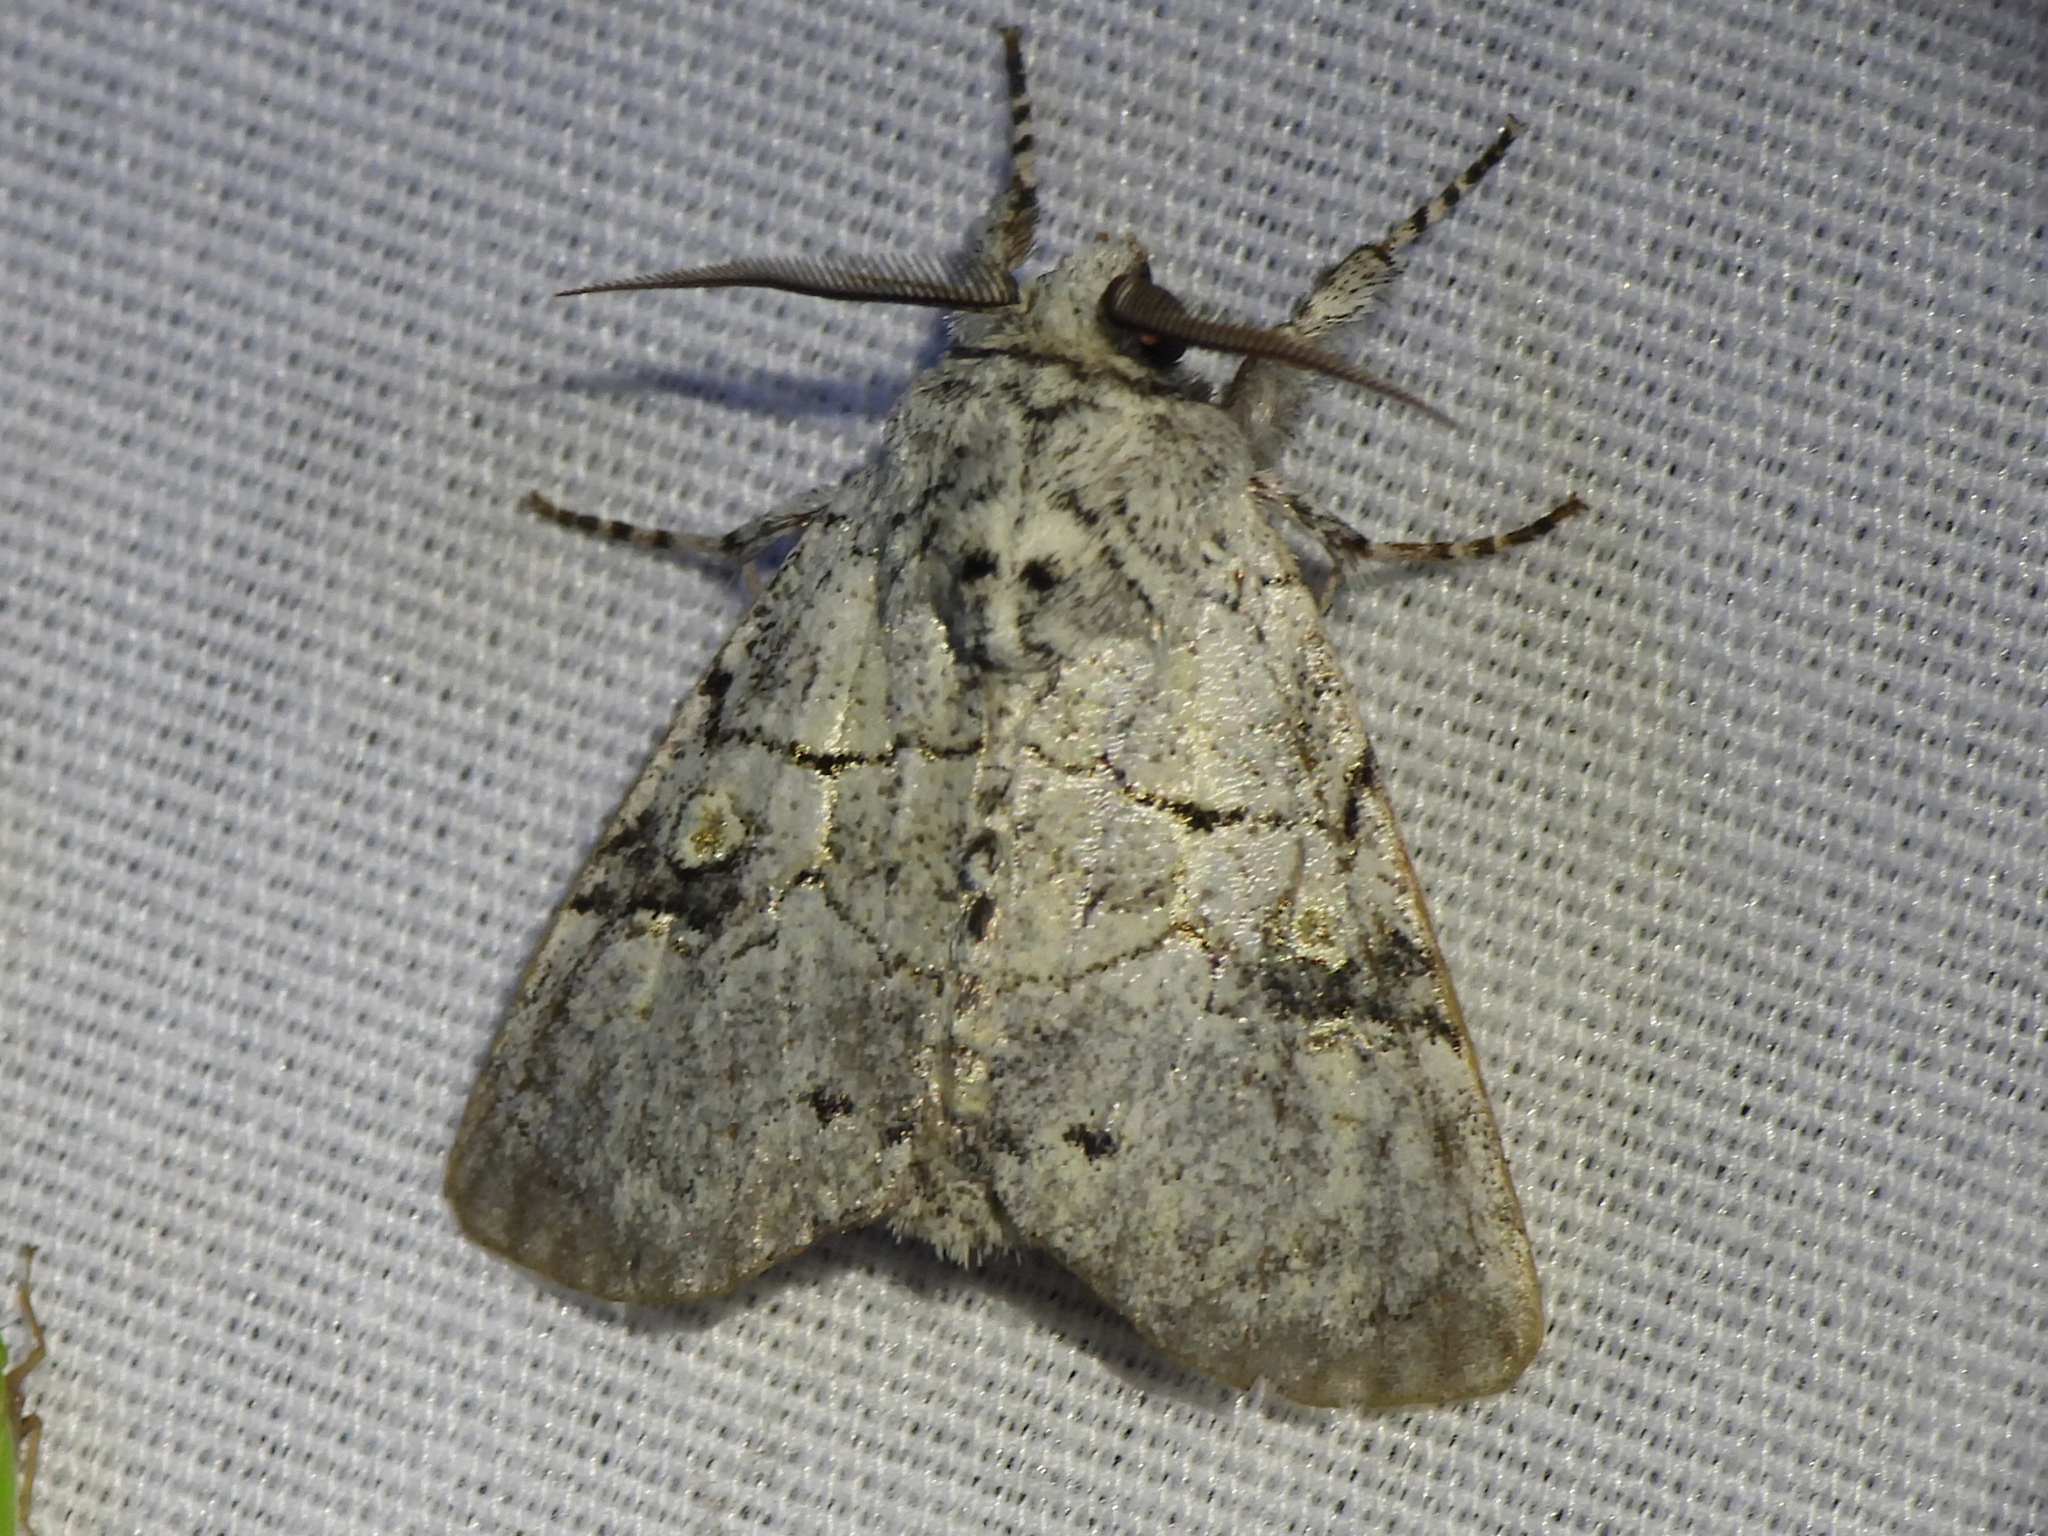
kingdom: Animalia
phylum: Arthropoda
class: Insecta
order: Lepidoptera
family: Noctuidae
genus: Charadra
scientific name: Charadra dispulsa
